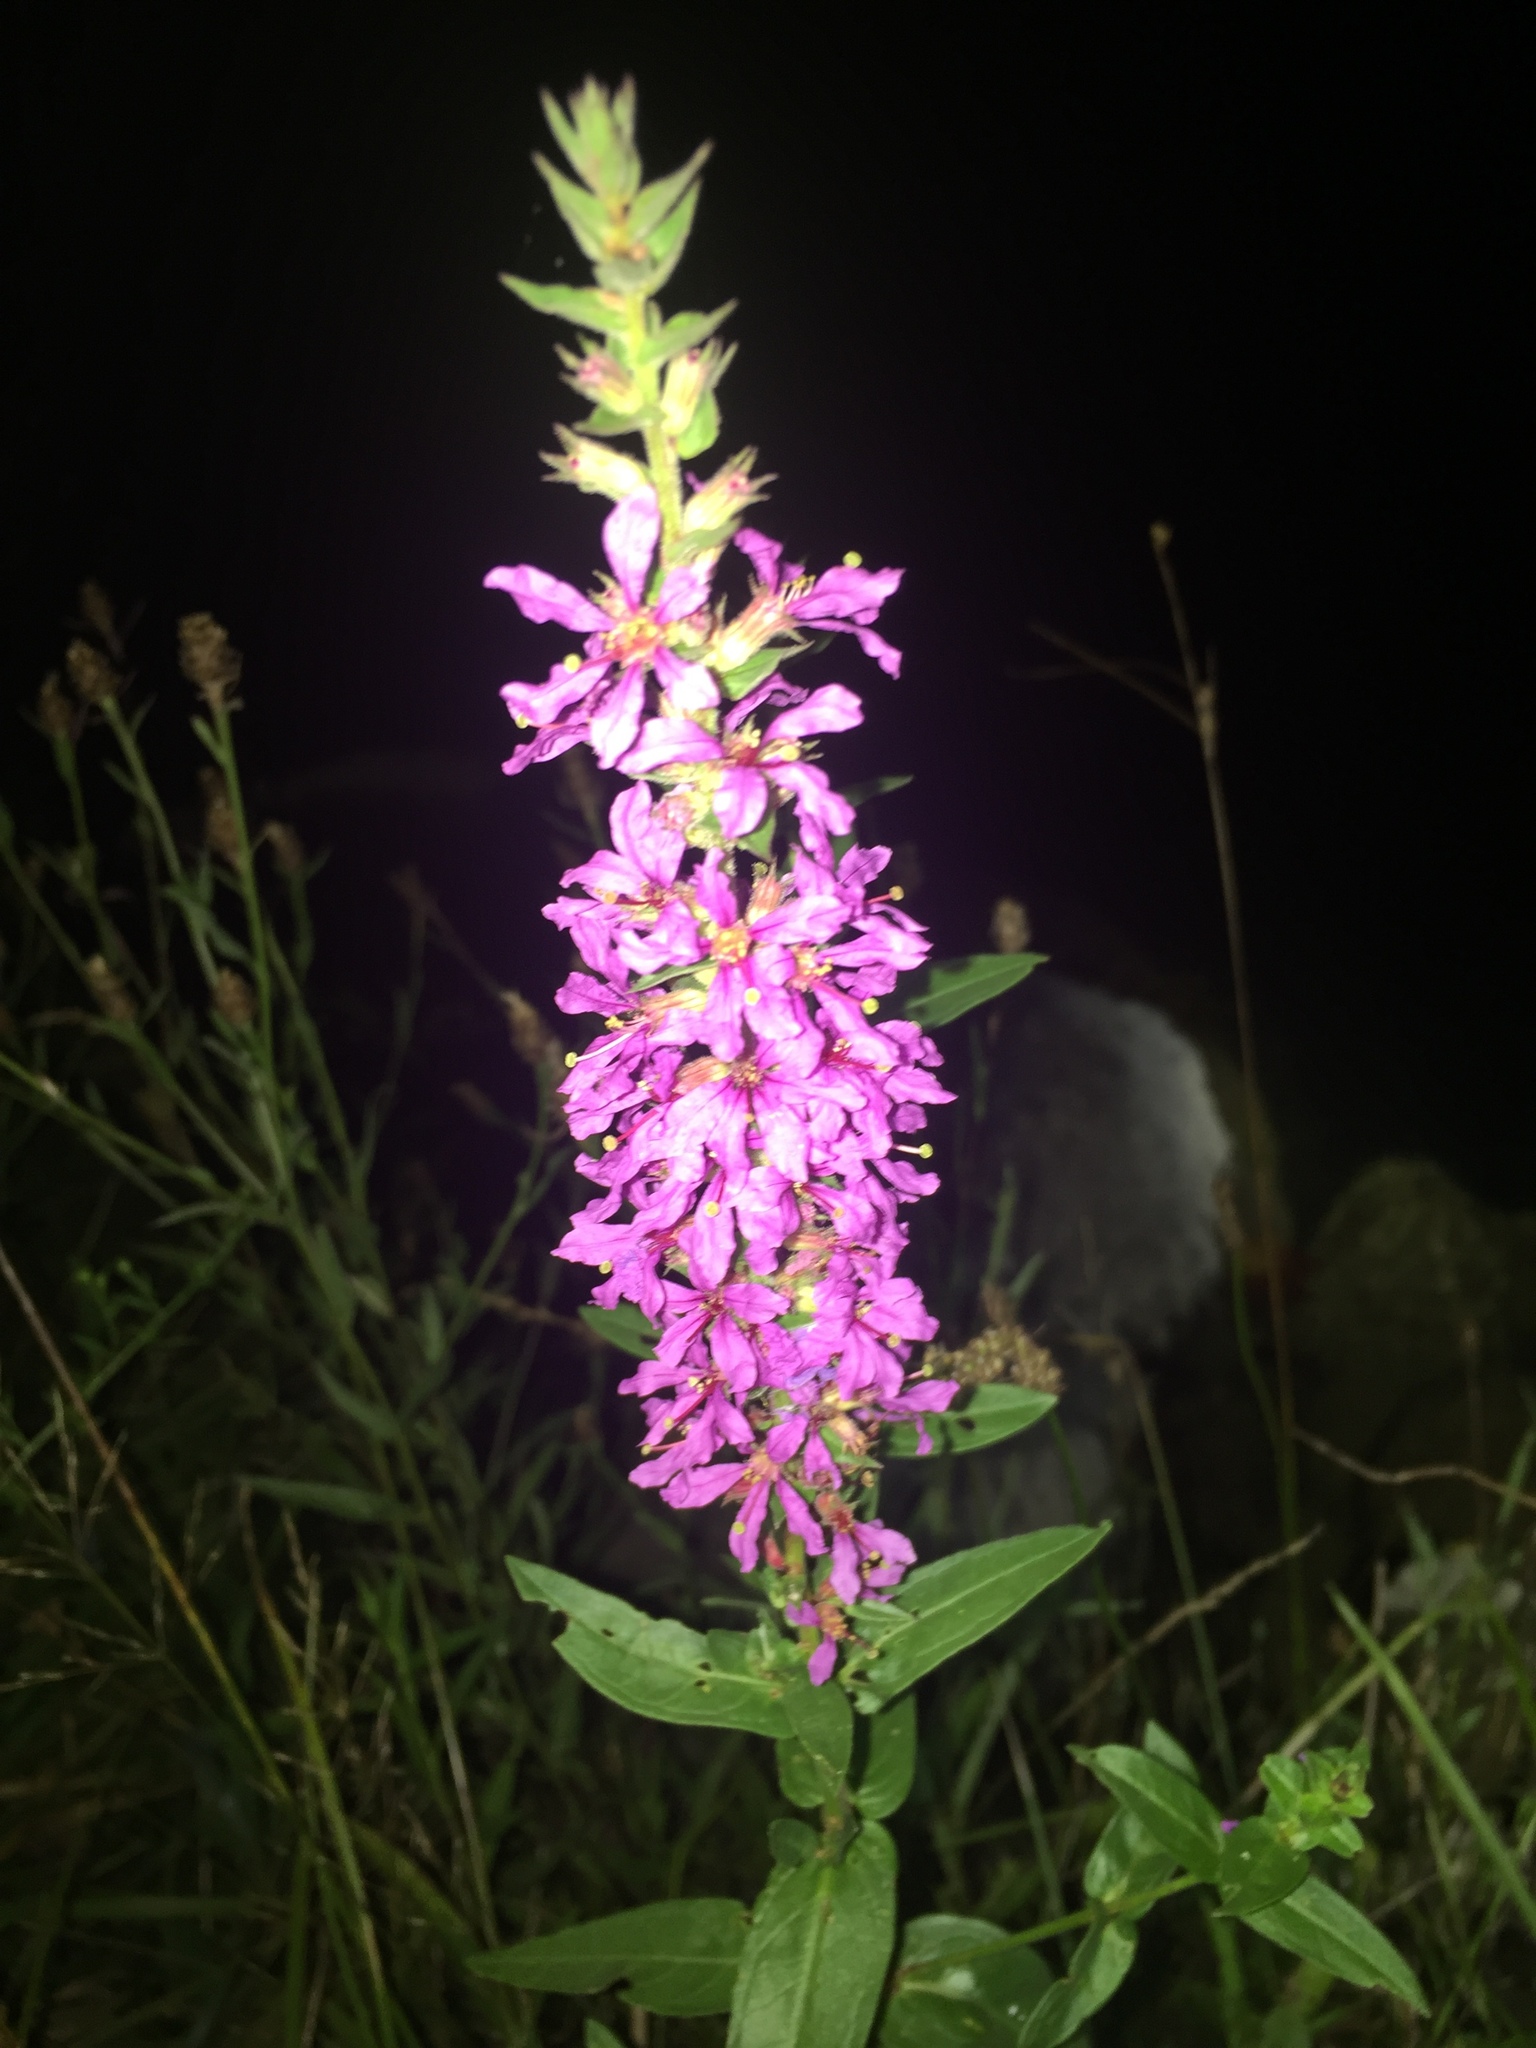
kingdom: Plantae
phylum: Tracheophyta
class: Magnoliopsida
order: Myrtales
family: Lythraceae
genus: Lythrum
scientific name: Lythrum salicaria
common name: Purple loosestrife
